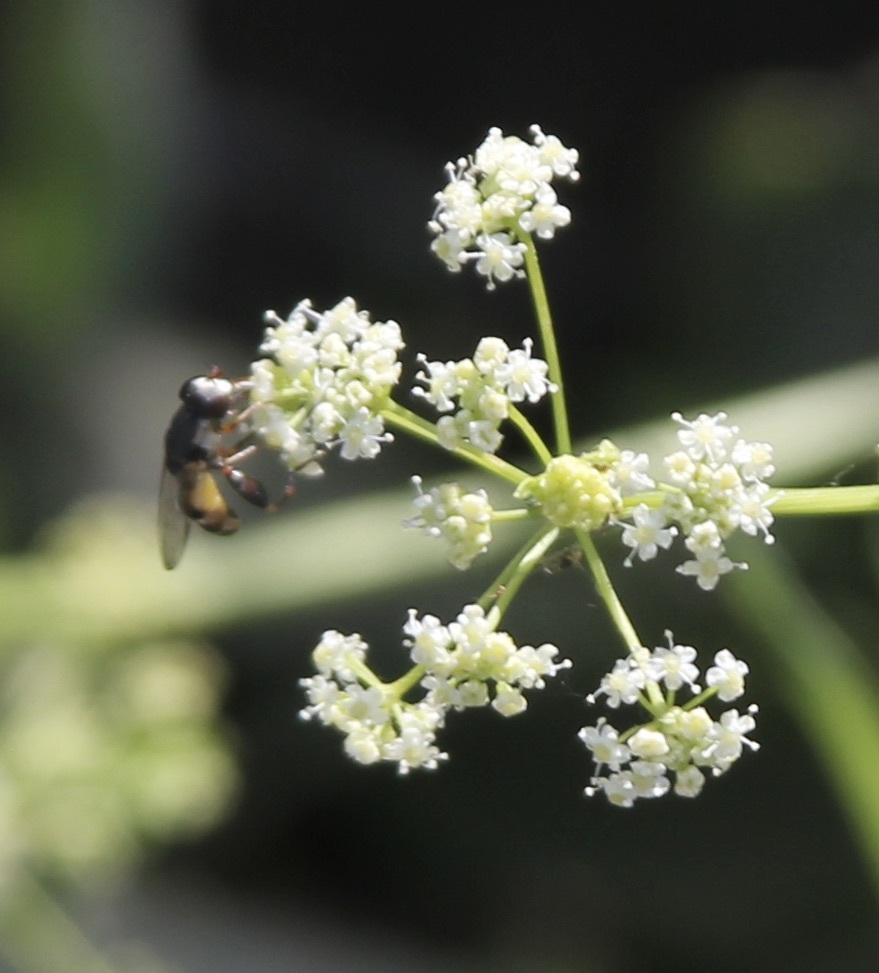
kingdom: Animalia
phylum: Arthropoda
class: Insecta
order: Diptera
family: Syrphidae
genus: Syritta
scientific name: Syritta pipiens
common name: Hover fly
